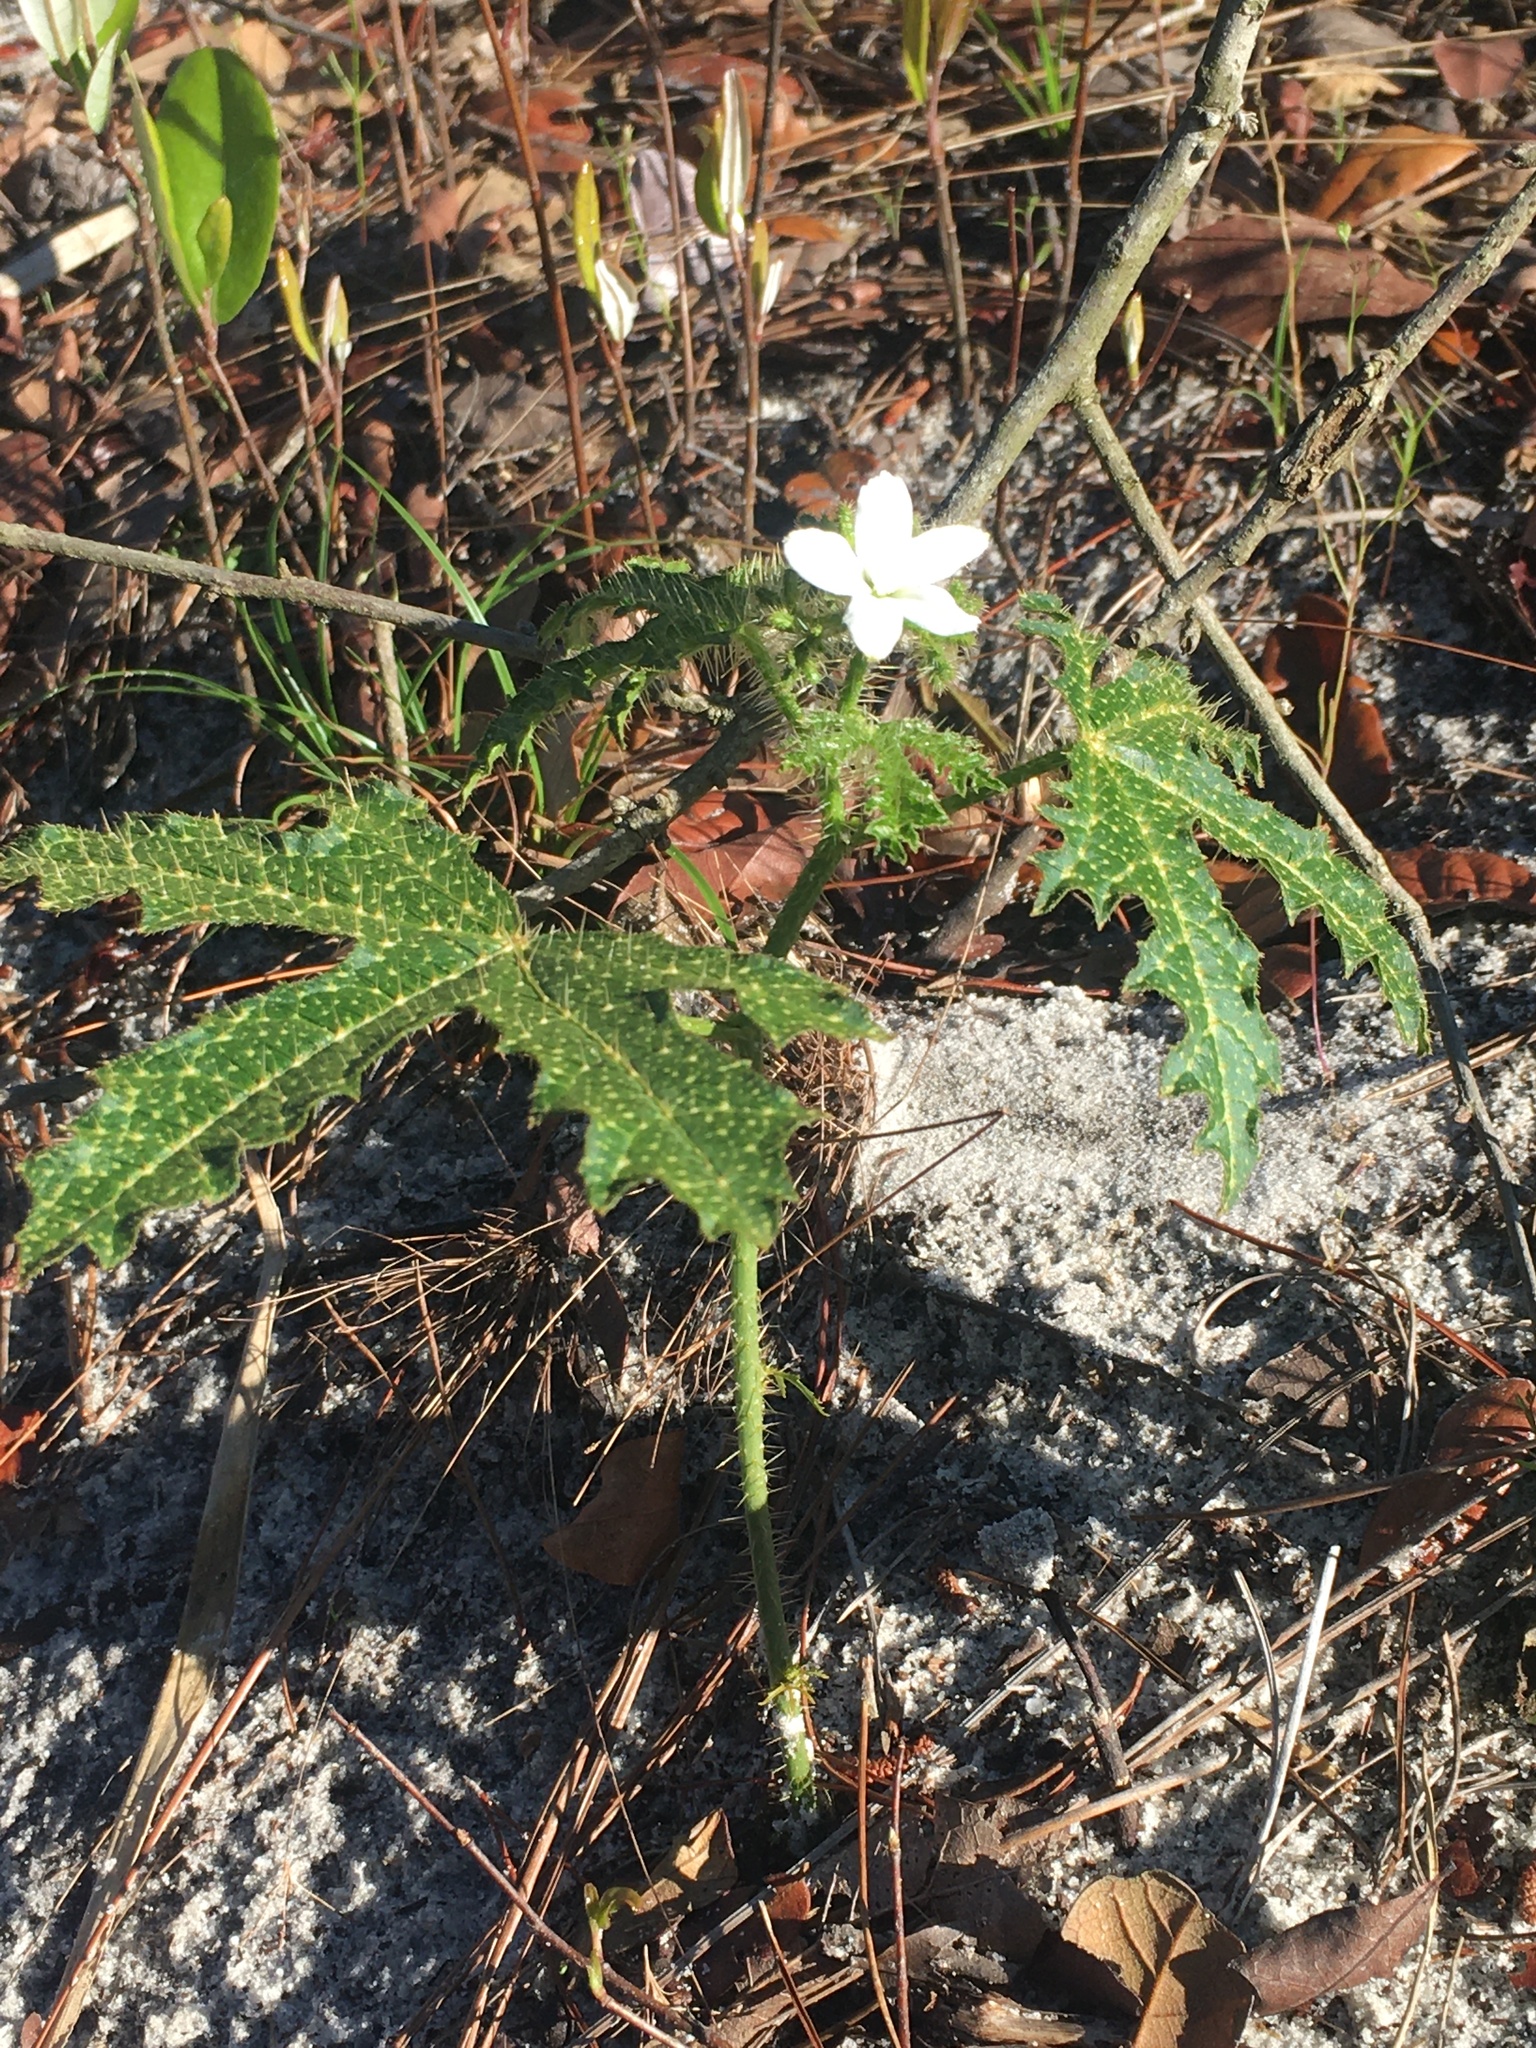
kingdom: Plantae
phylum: Tracheophyta
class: Magnoliopsida
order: Malpighiales
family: Euphorbiaceae
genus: Cnidoscolus
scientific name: Cnidoscolus stimulosus
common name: Bull-nettle
